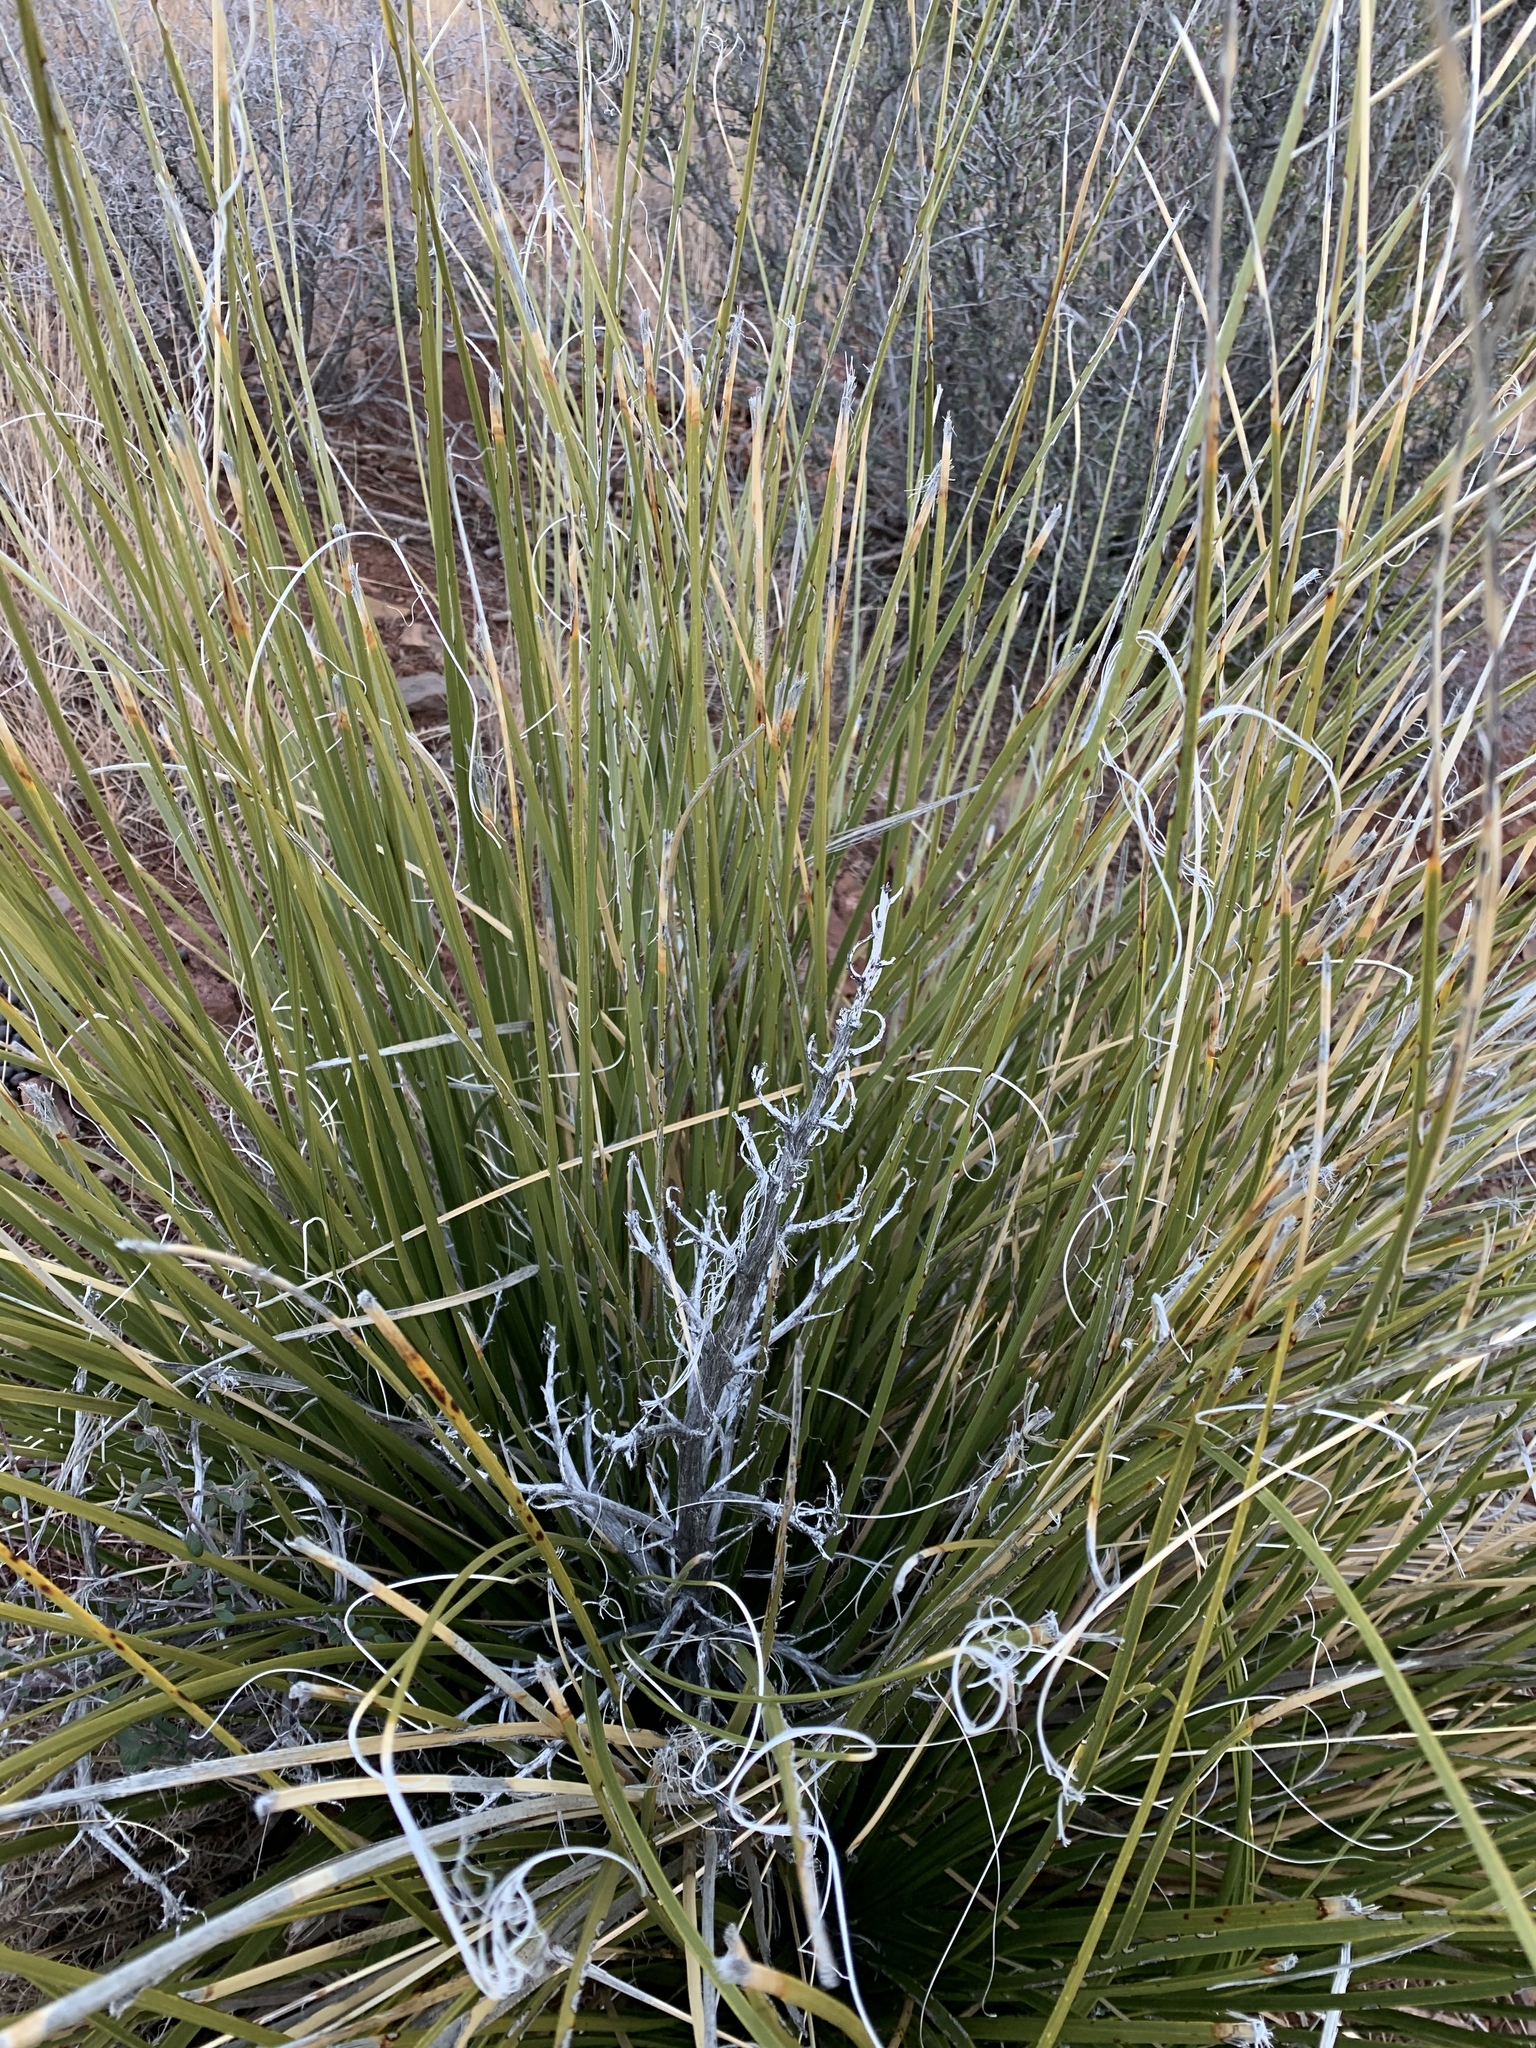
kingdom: Plantae
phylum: Tracheophyta
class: Liliopsida
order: Asparagales
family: Asparagaceae
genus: Nolina
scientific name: Nolina texana
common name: Texas sacahuiste
